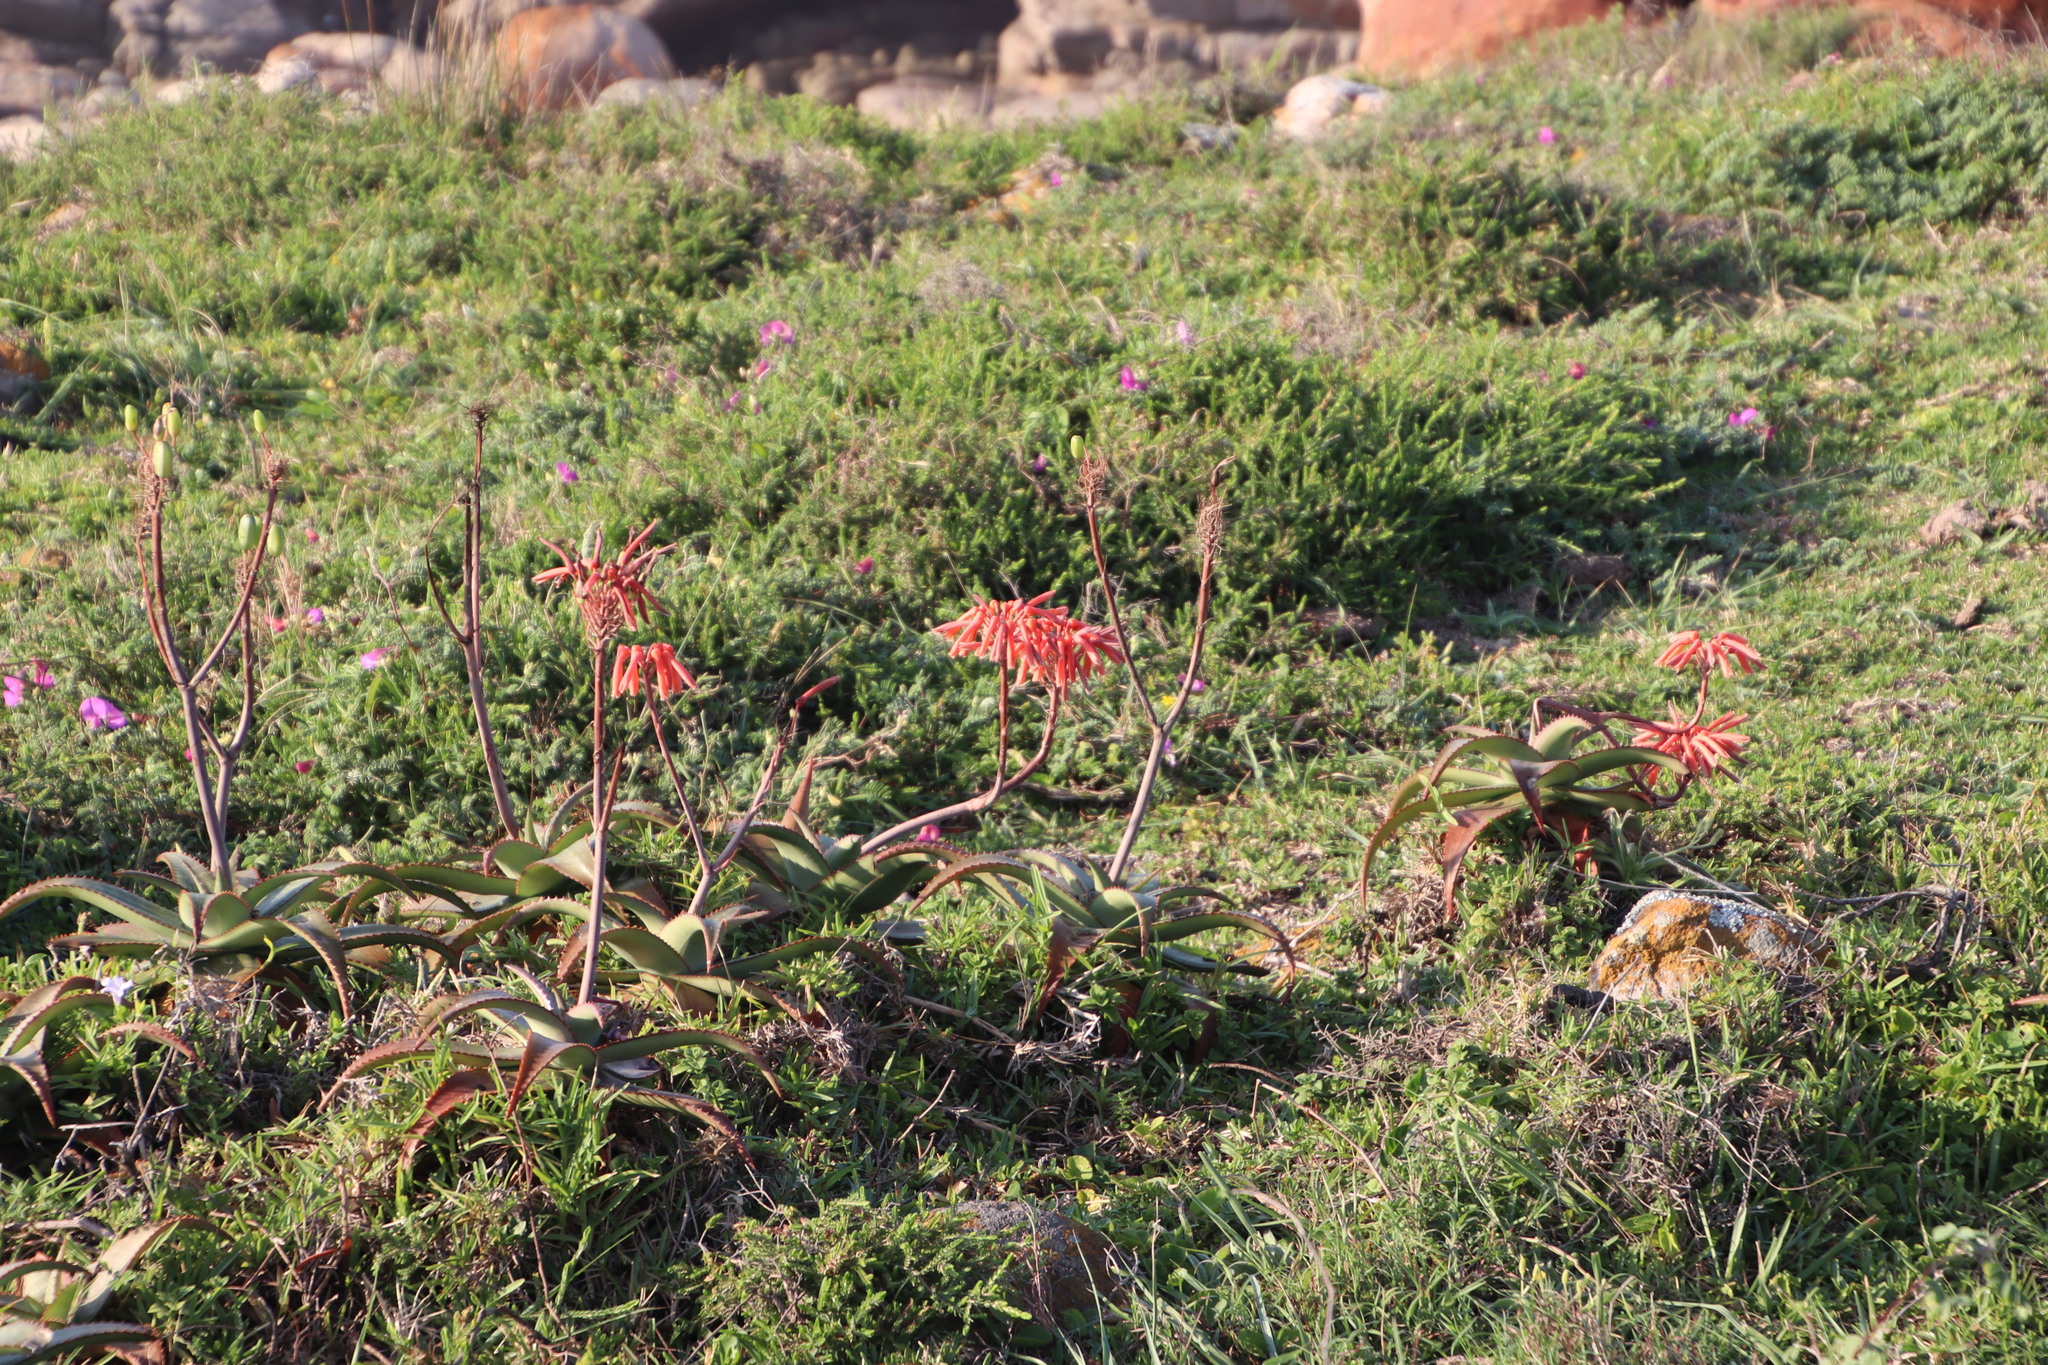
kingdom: Plantae
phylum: Tracheophyta
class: Liliopsida
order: Asparagales
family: Asphodelaceae
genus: Aloe
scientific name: Aloe maculata
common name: Broadleaf aloe
